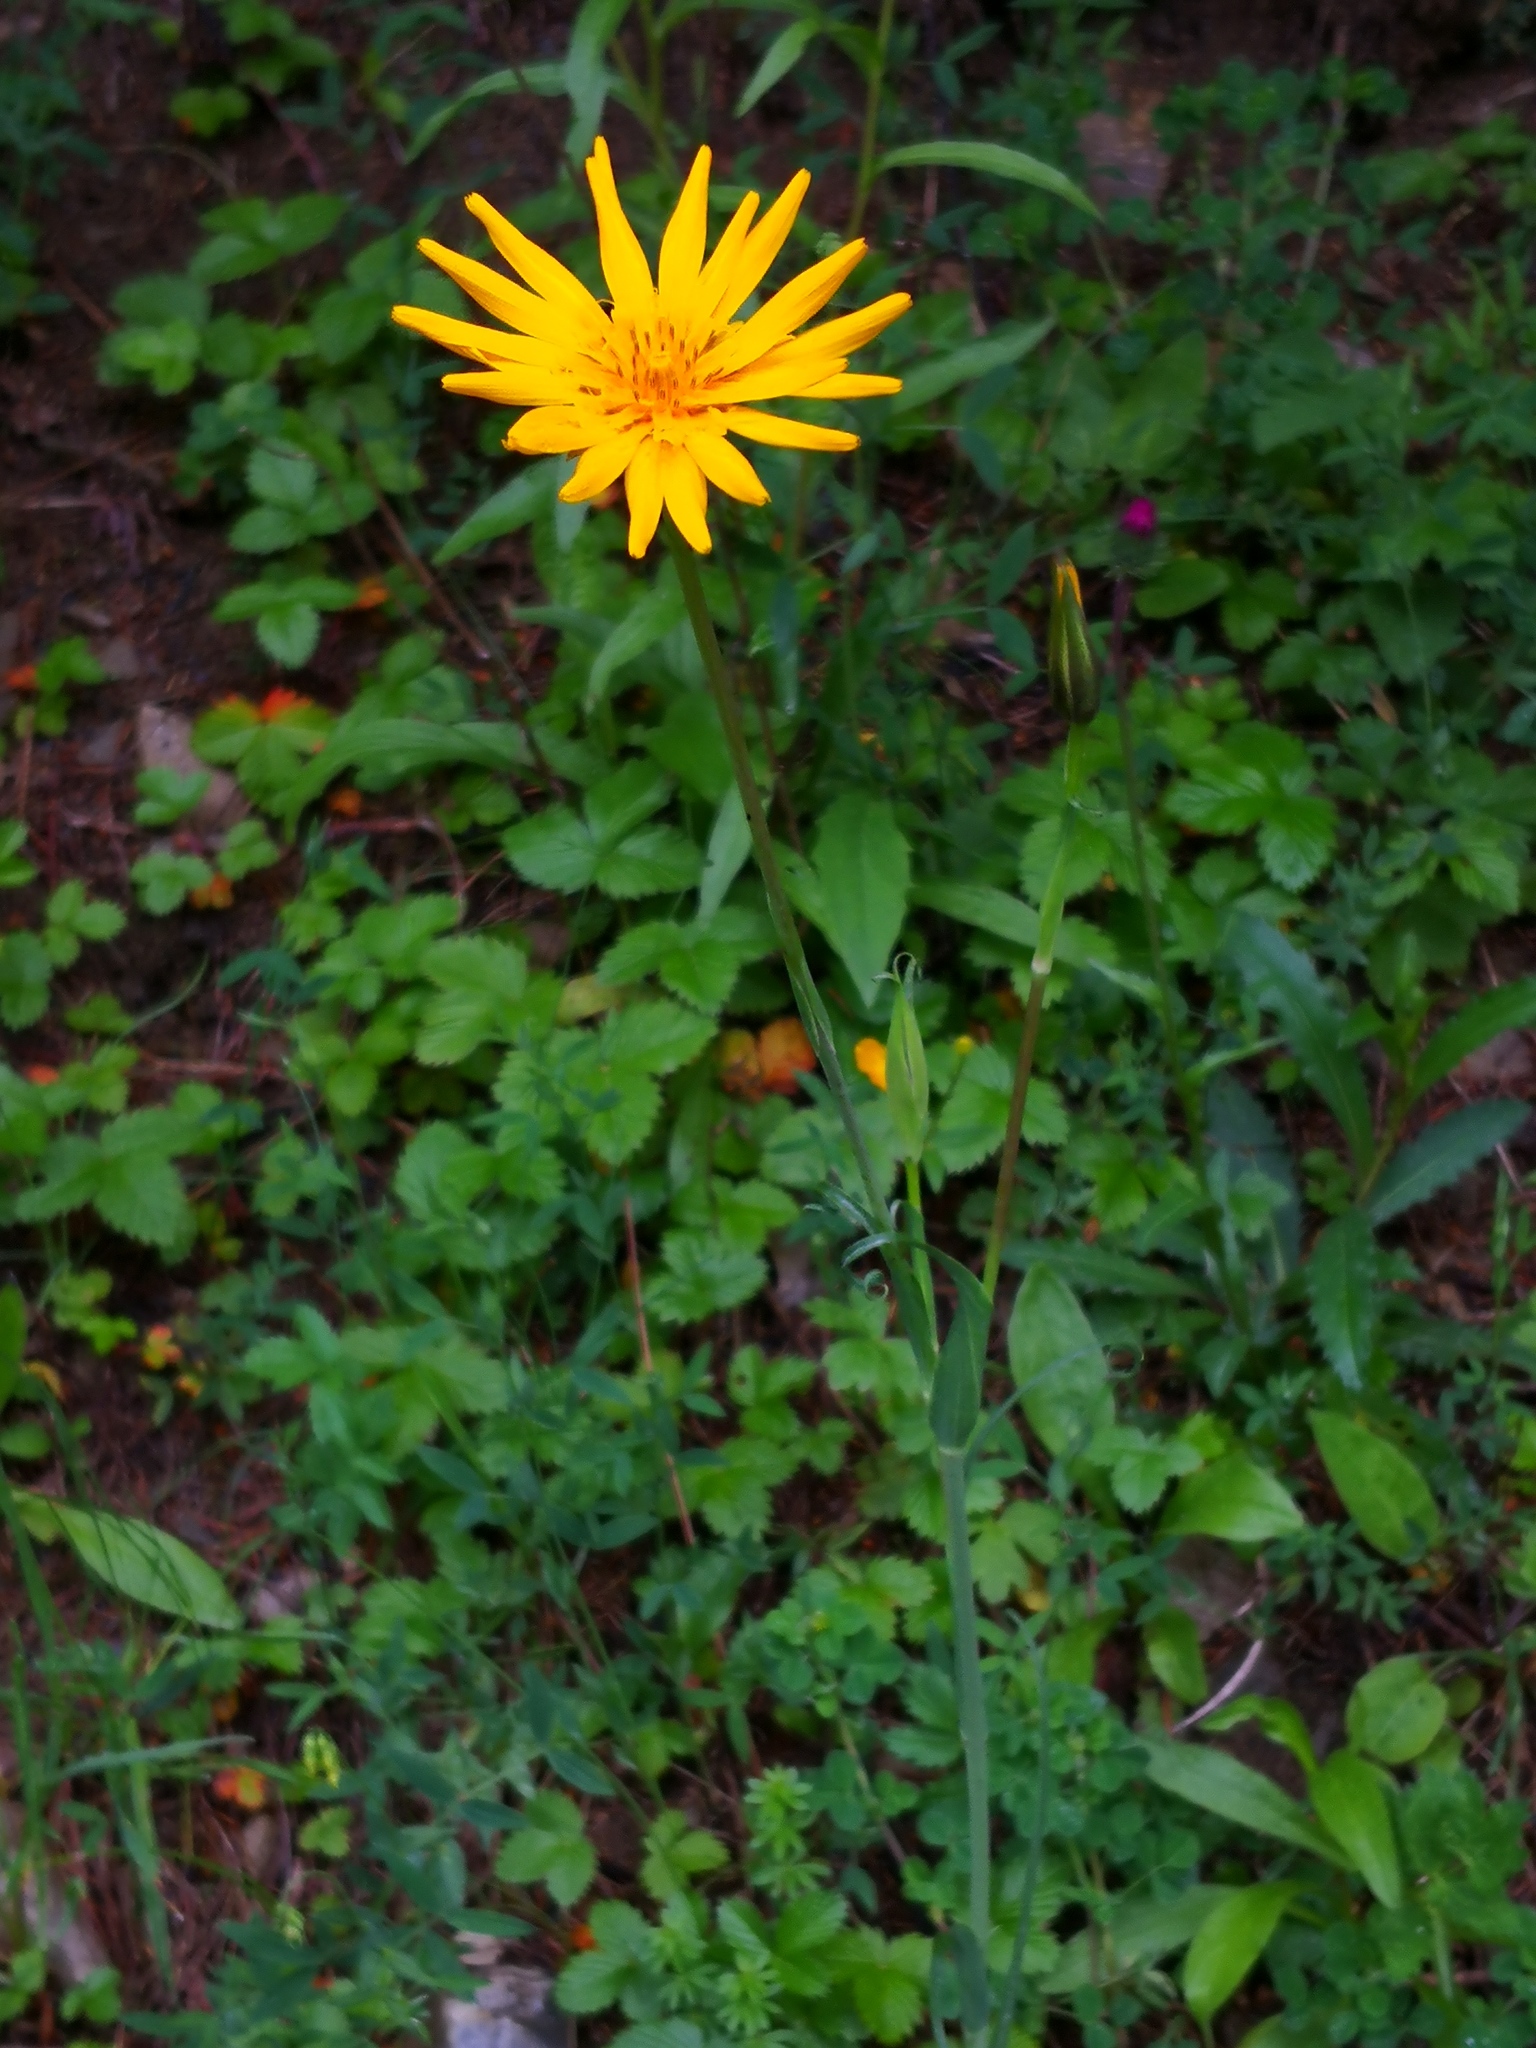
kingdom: Plantae
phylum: Tracheophyta
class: Magnoliopsida
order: Asterales
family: Asteraceae
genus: Tragopogon
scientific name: Tragopogon orientalis
